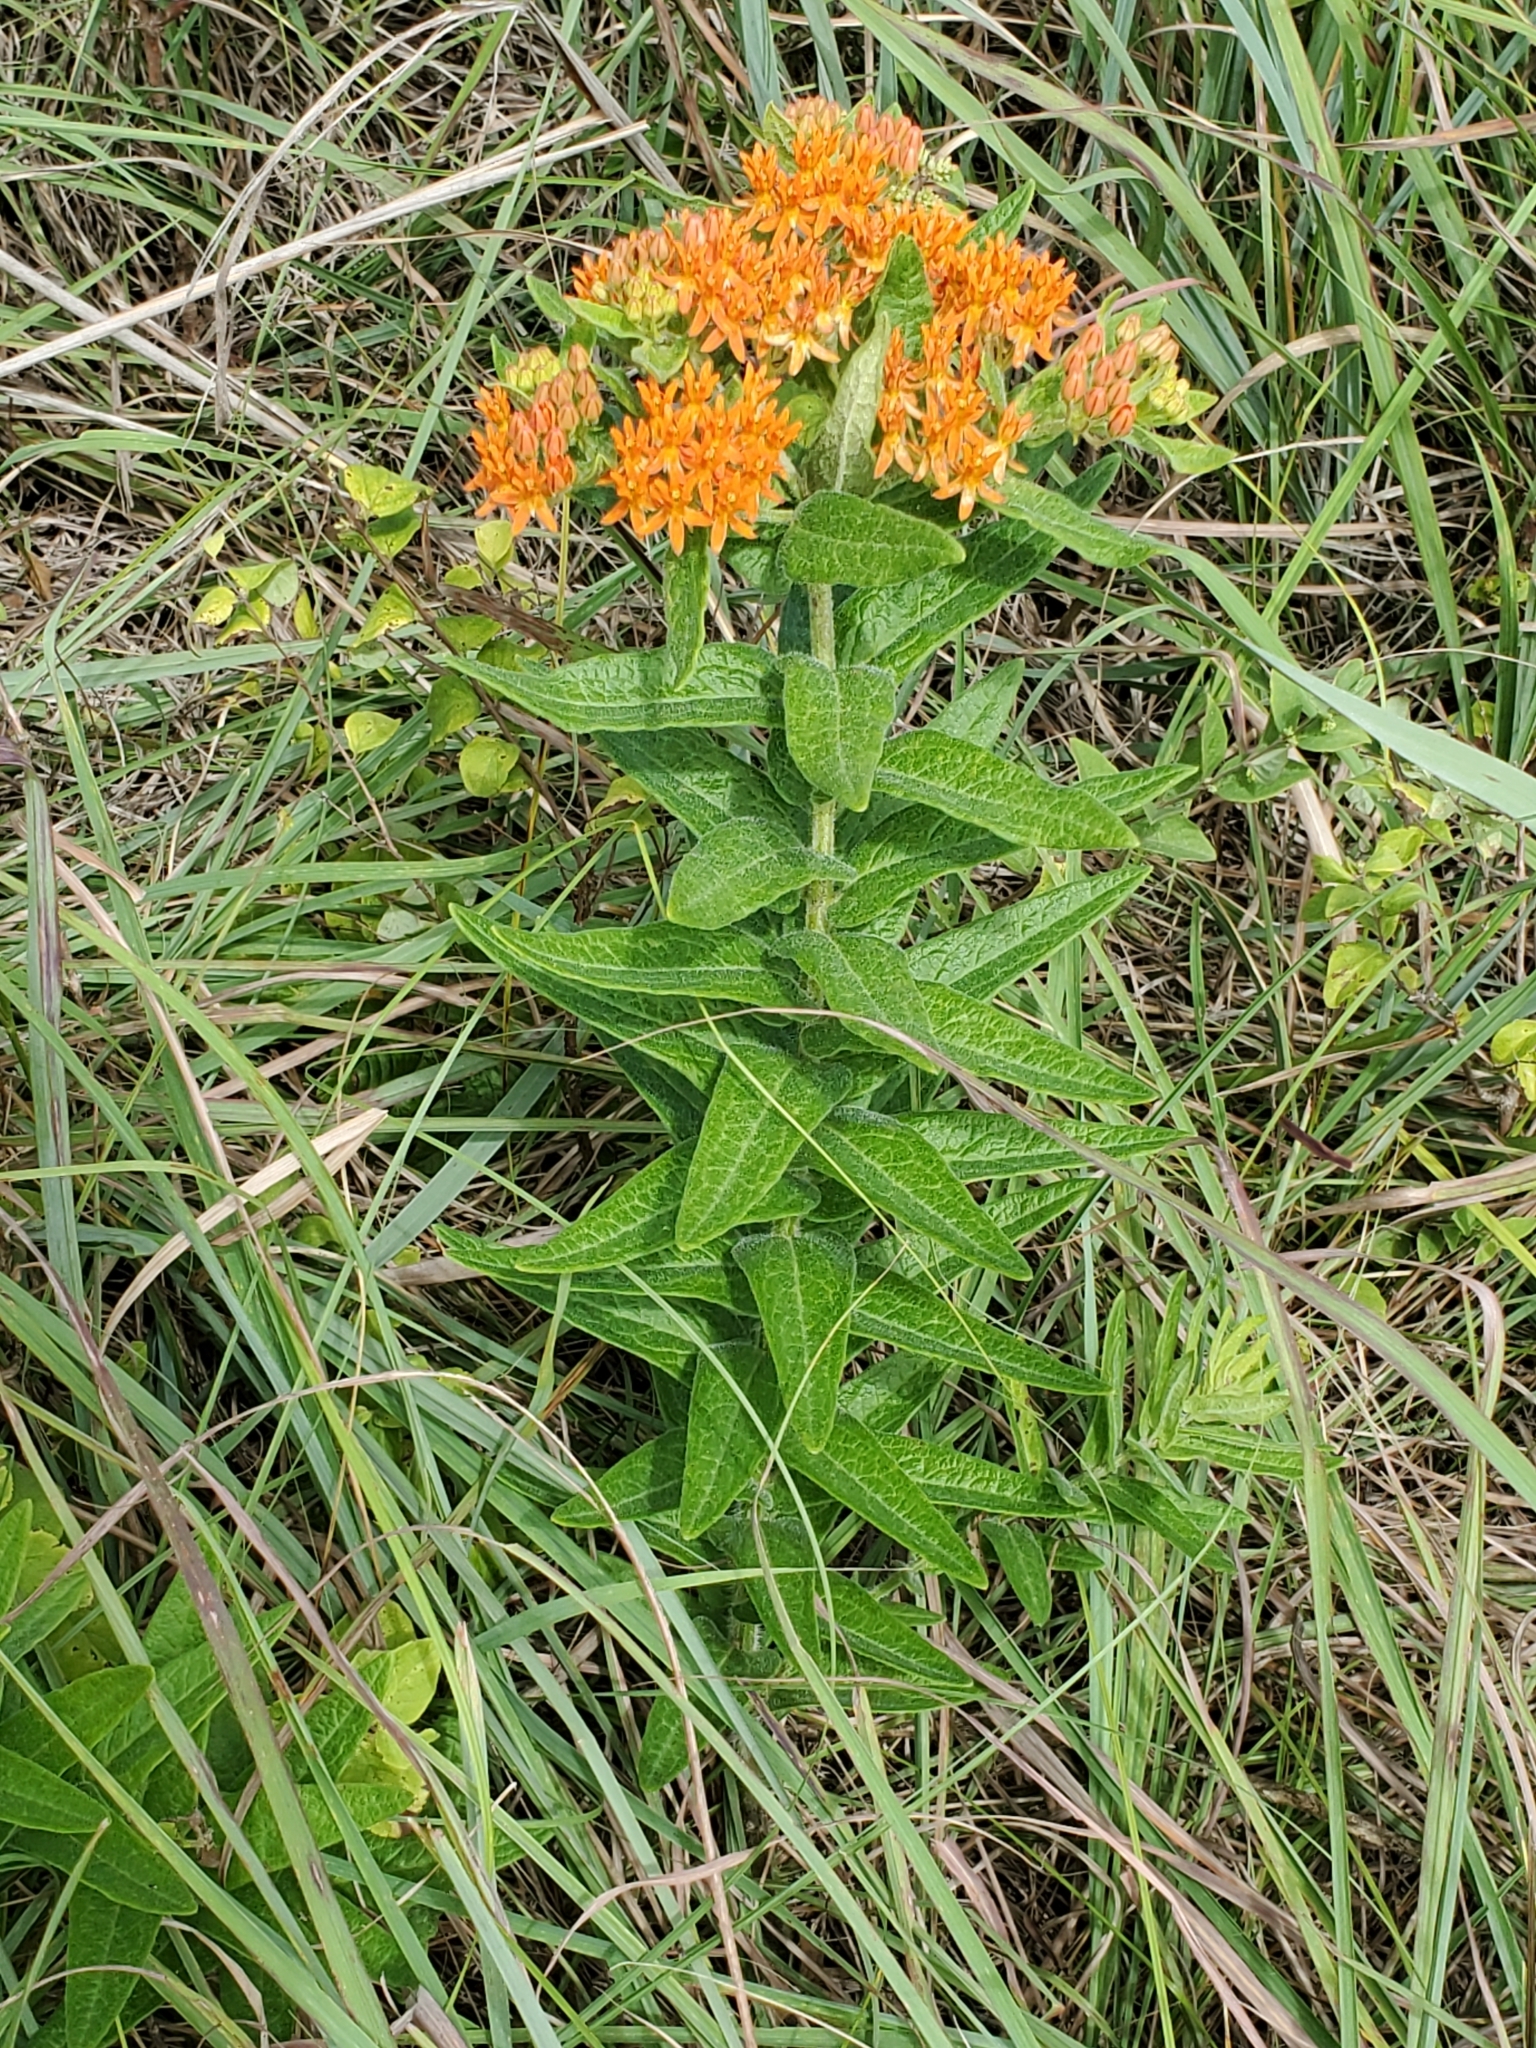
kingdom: Plantae
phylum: Tracheophyta
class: Magnoliopsida
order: Gentianales
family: Apocynaceae
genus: Asclepias
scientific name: Asclepias tuberosa
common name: Butterfly milkweed
